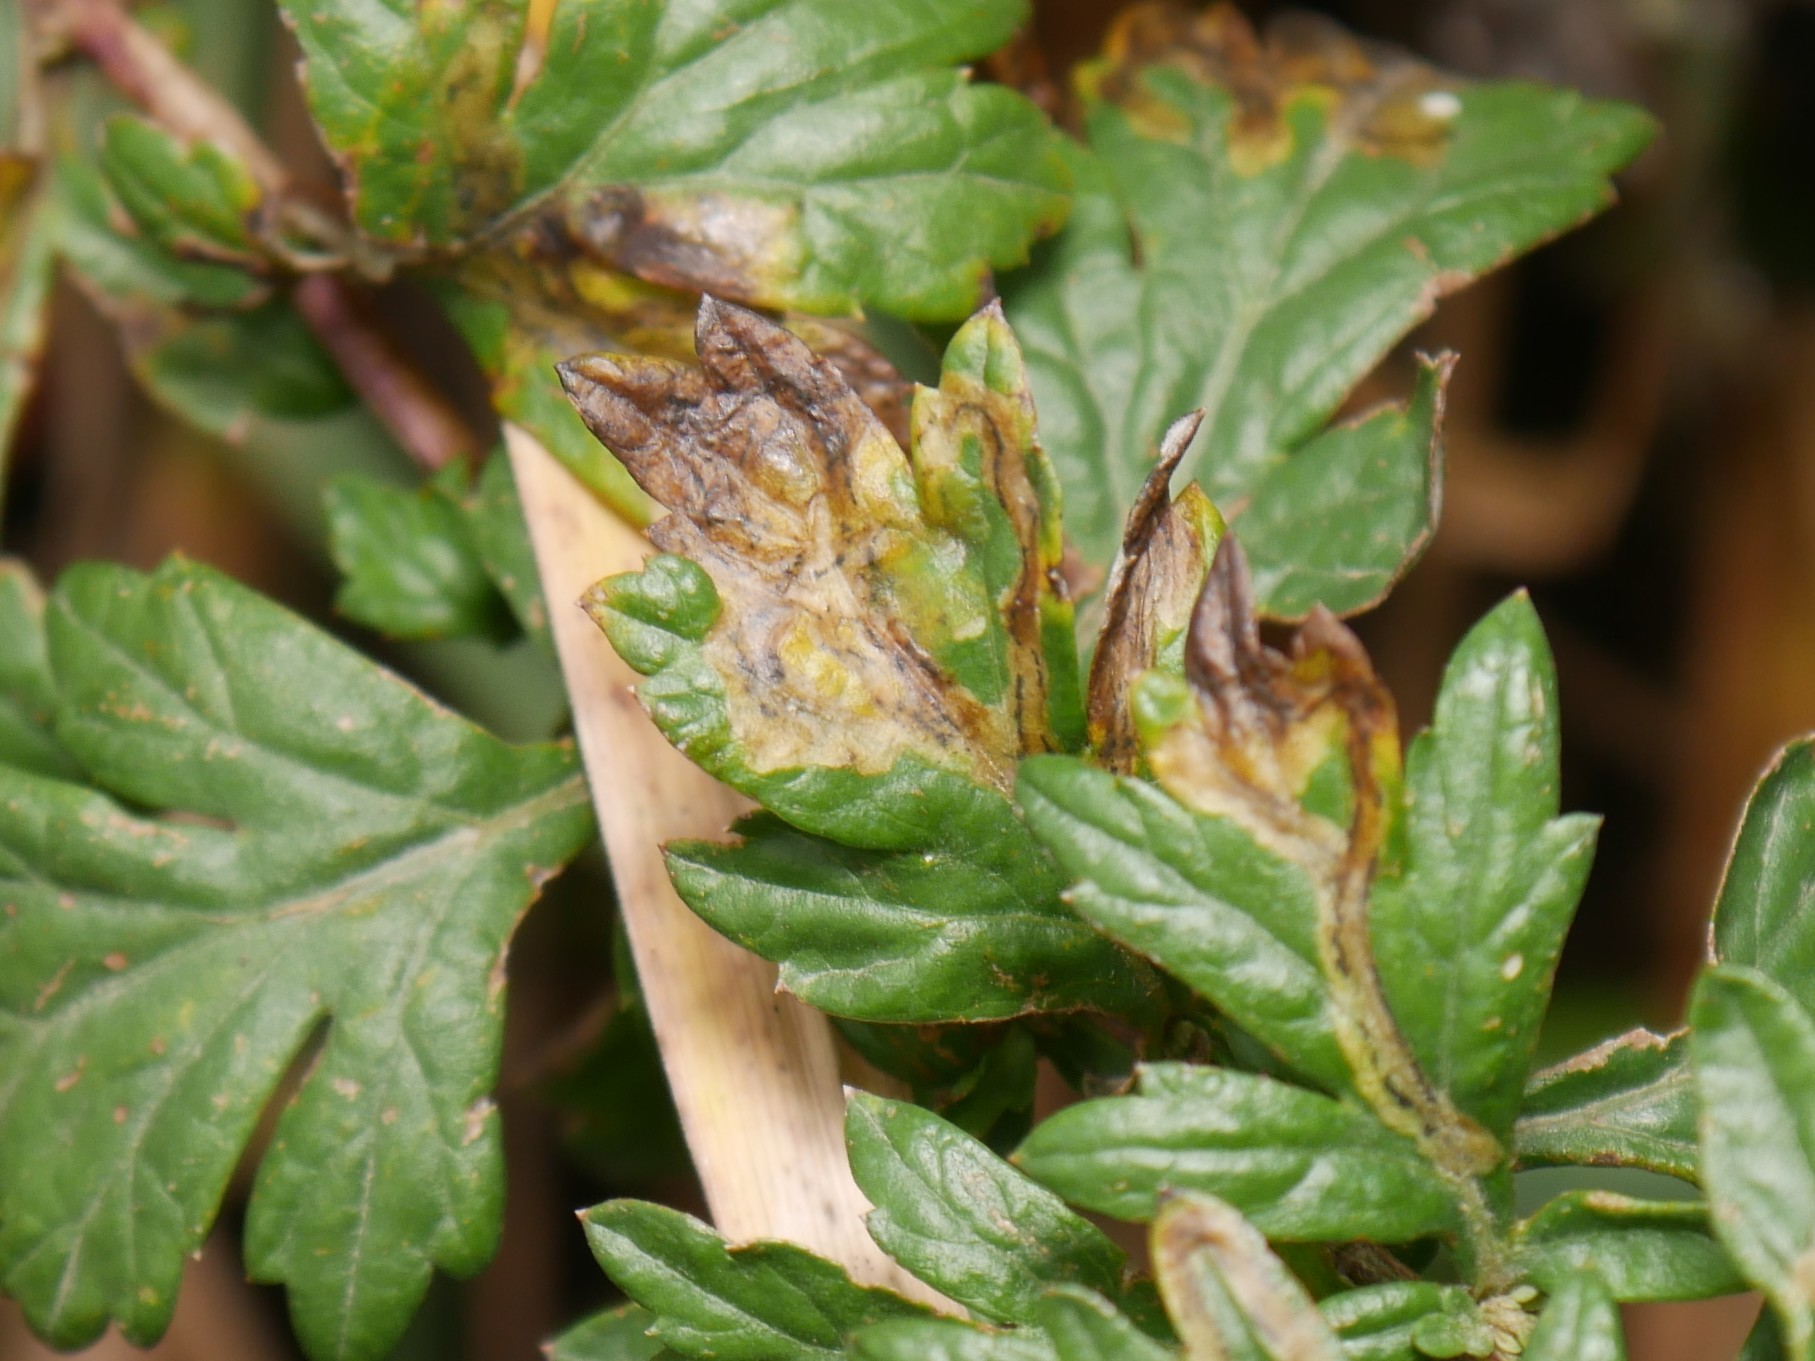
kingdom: Animalia
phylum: Arthropoda
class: Insecta
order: Diptera
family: Agromyzidae
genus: Calycomyza
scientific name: Calycomyza artemisiae
